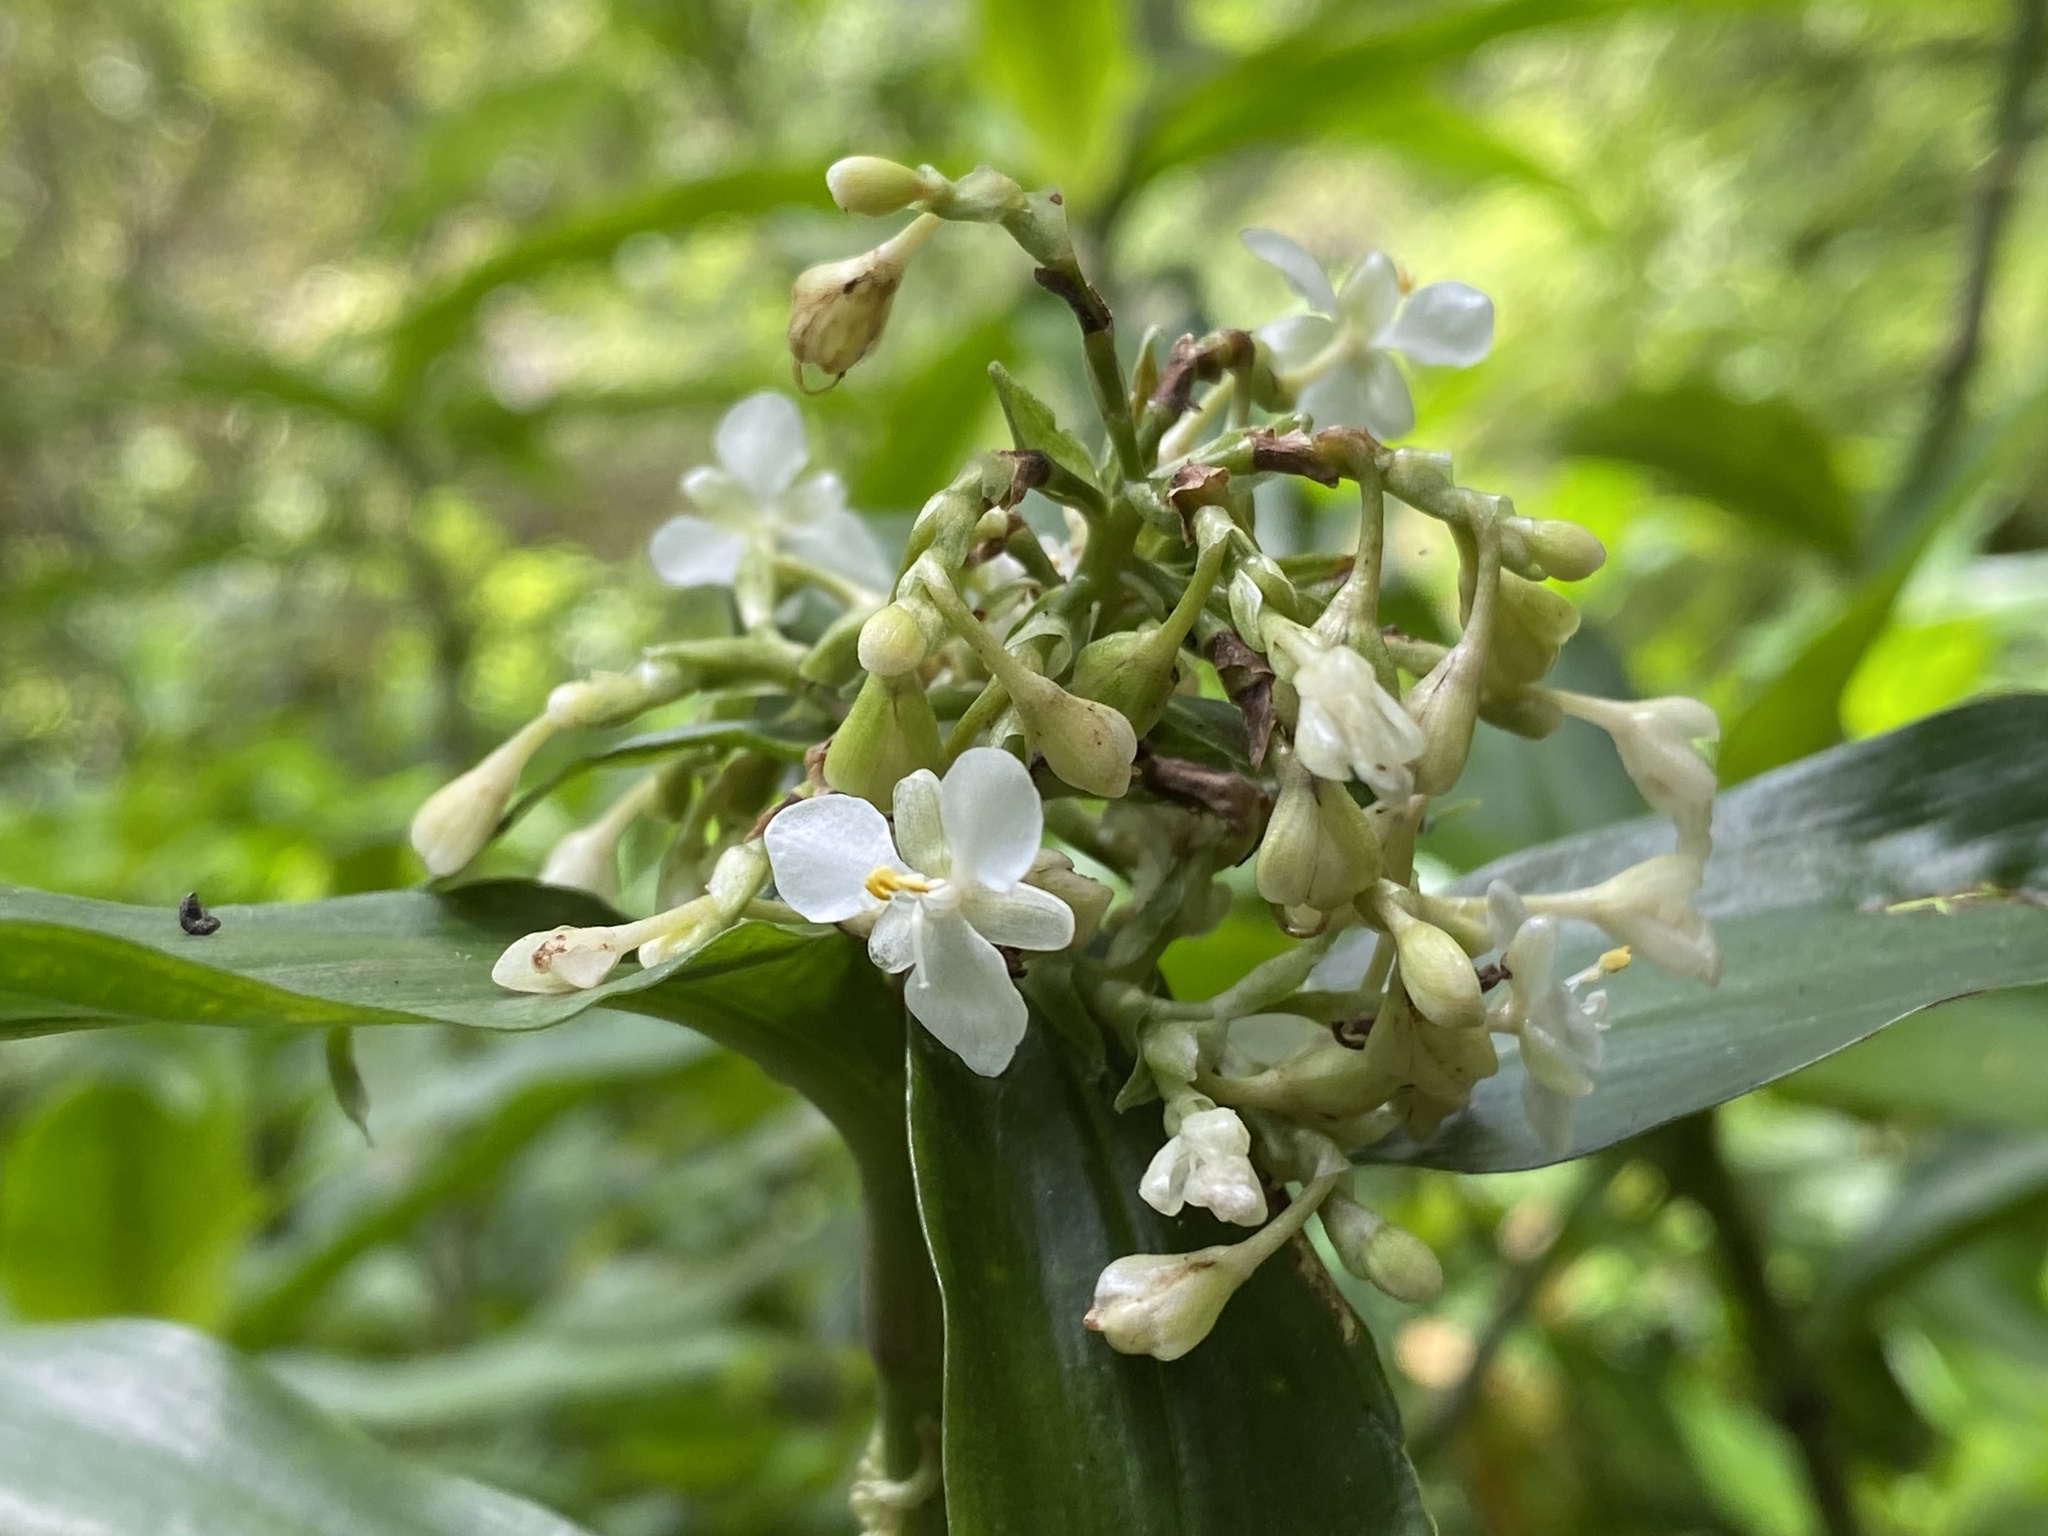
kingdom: Plantae
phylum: Tracheophyta
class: Liliopsida
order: Commelinales
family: Commelinaceae
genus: Pollia
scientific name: Pollia crispata
